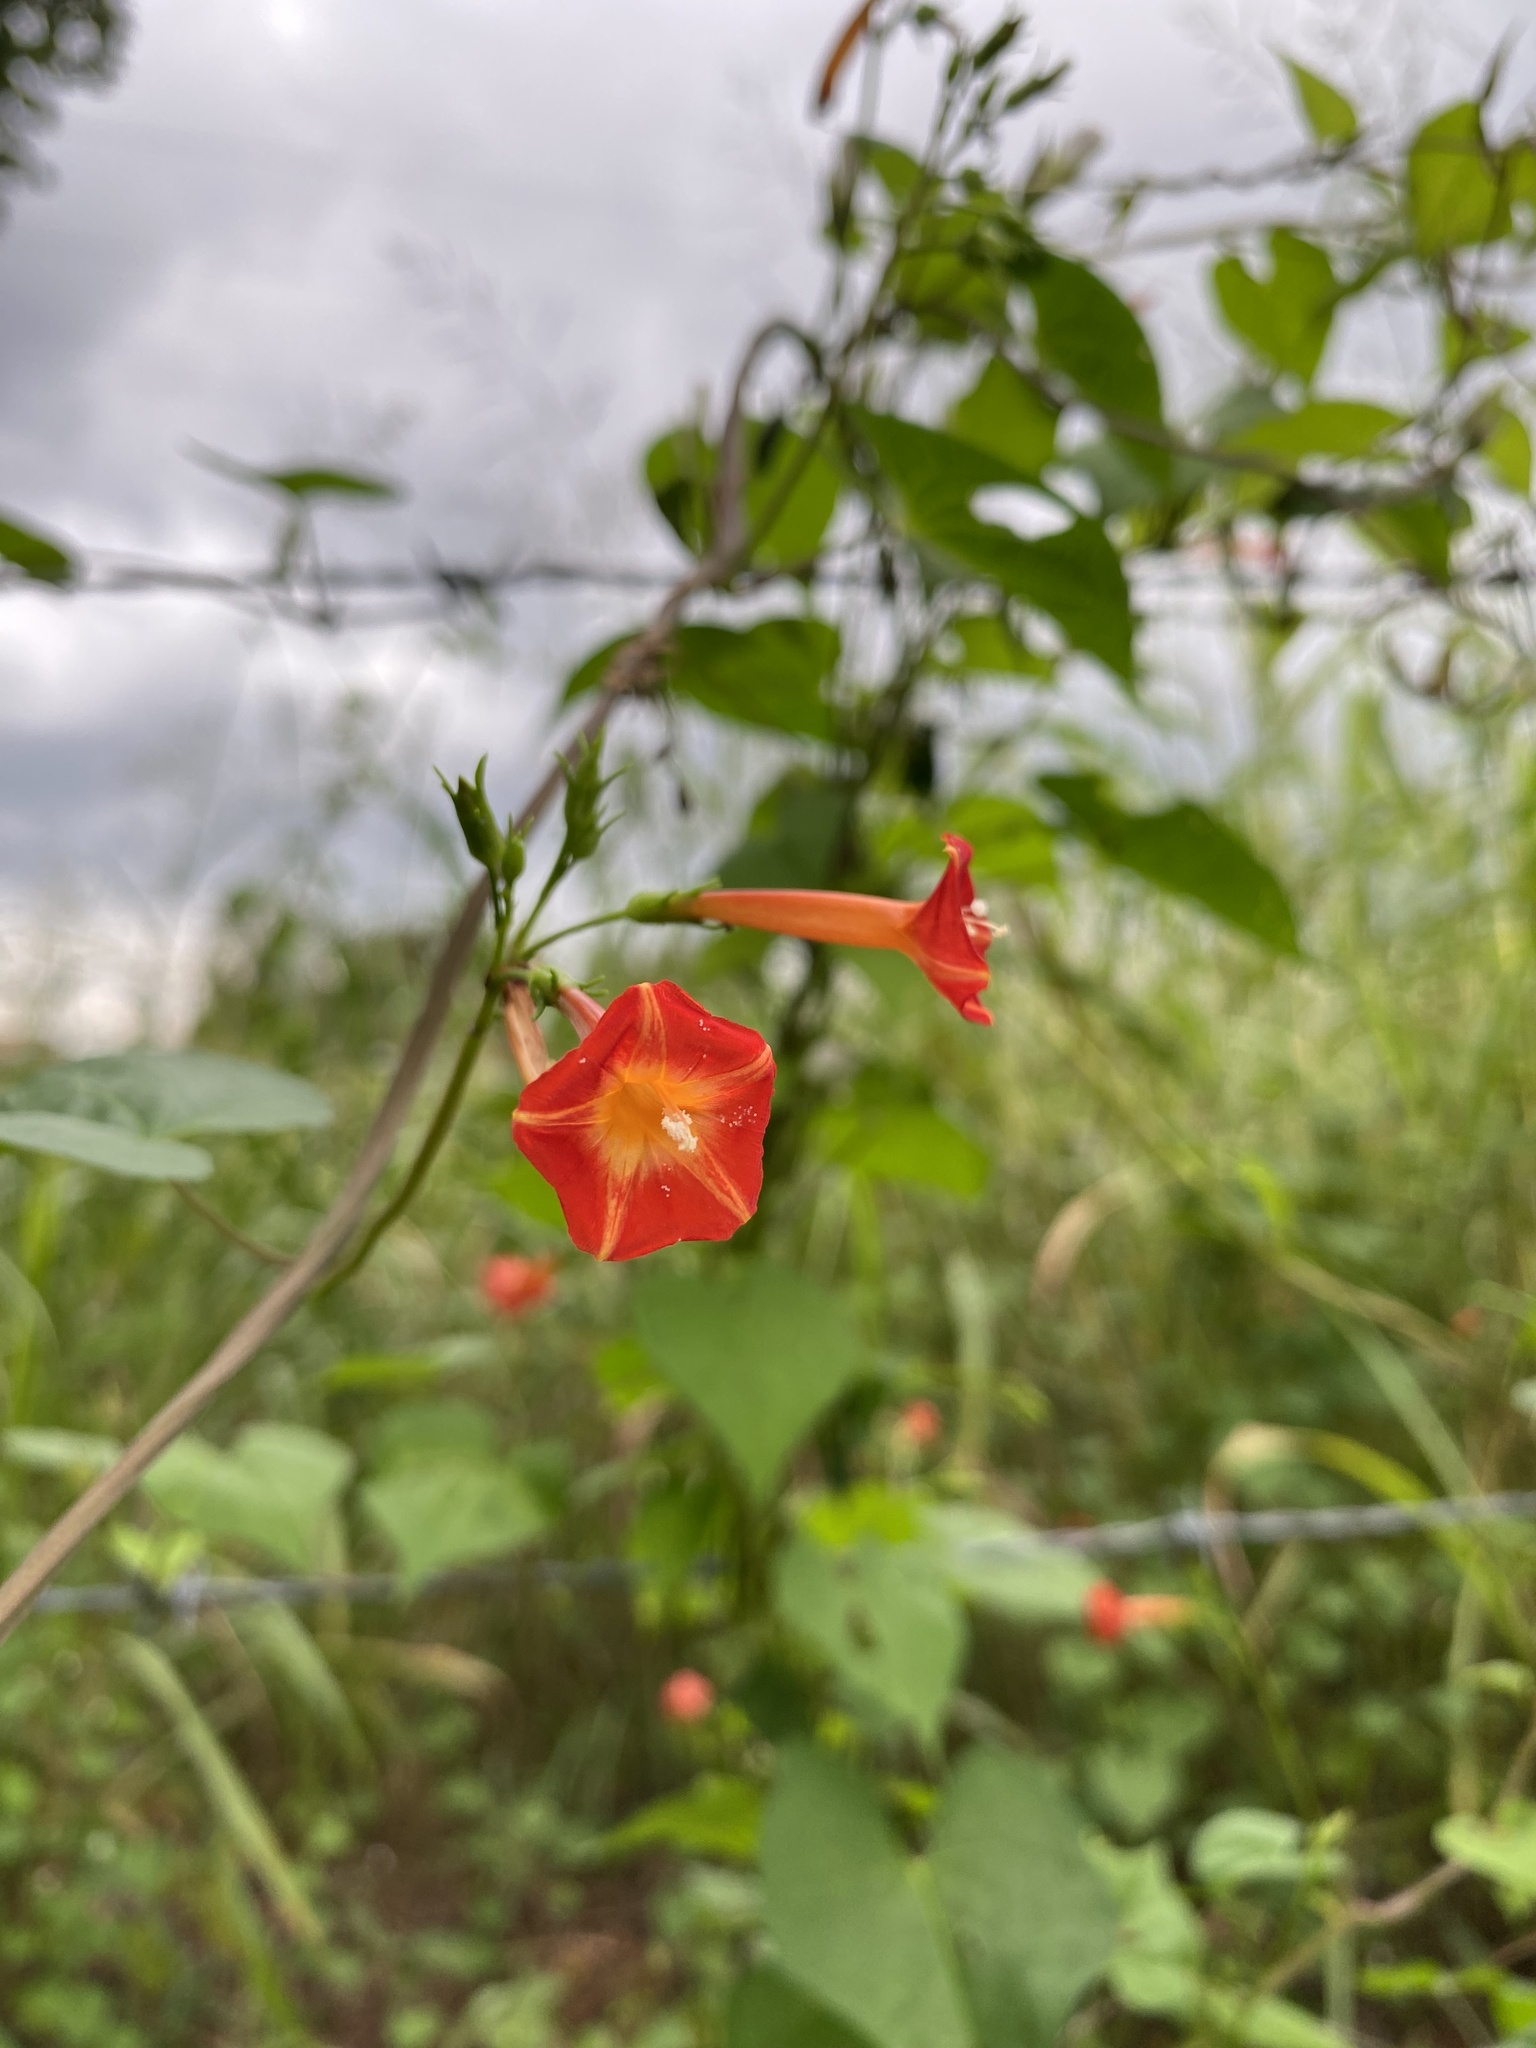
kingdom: Plantae
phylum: Tracheophyta
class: Magnoliopsida
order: Solanales
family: Convolvulaceae
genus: Ipomoea
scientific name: Ipomoea coccinea
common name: Red morning-glory
